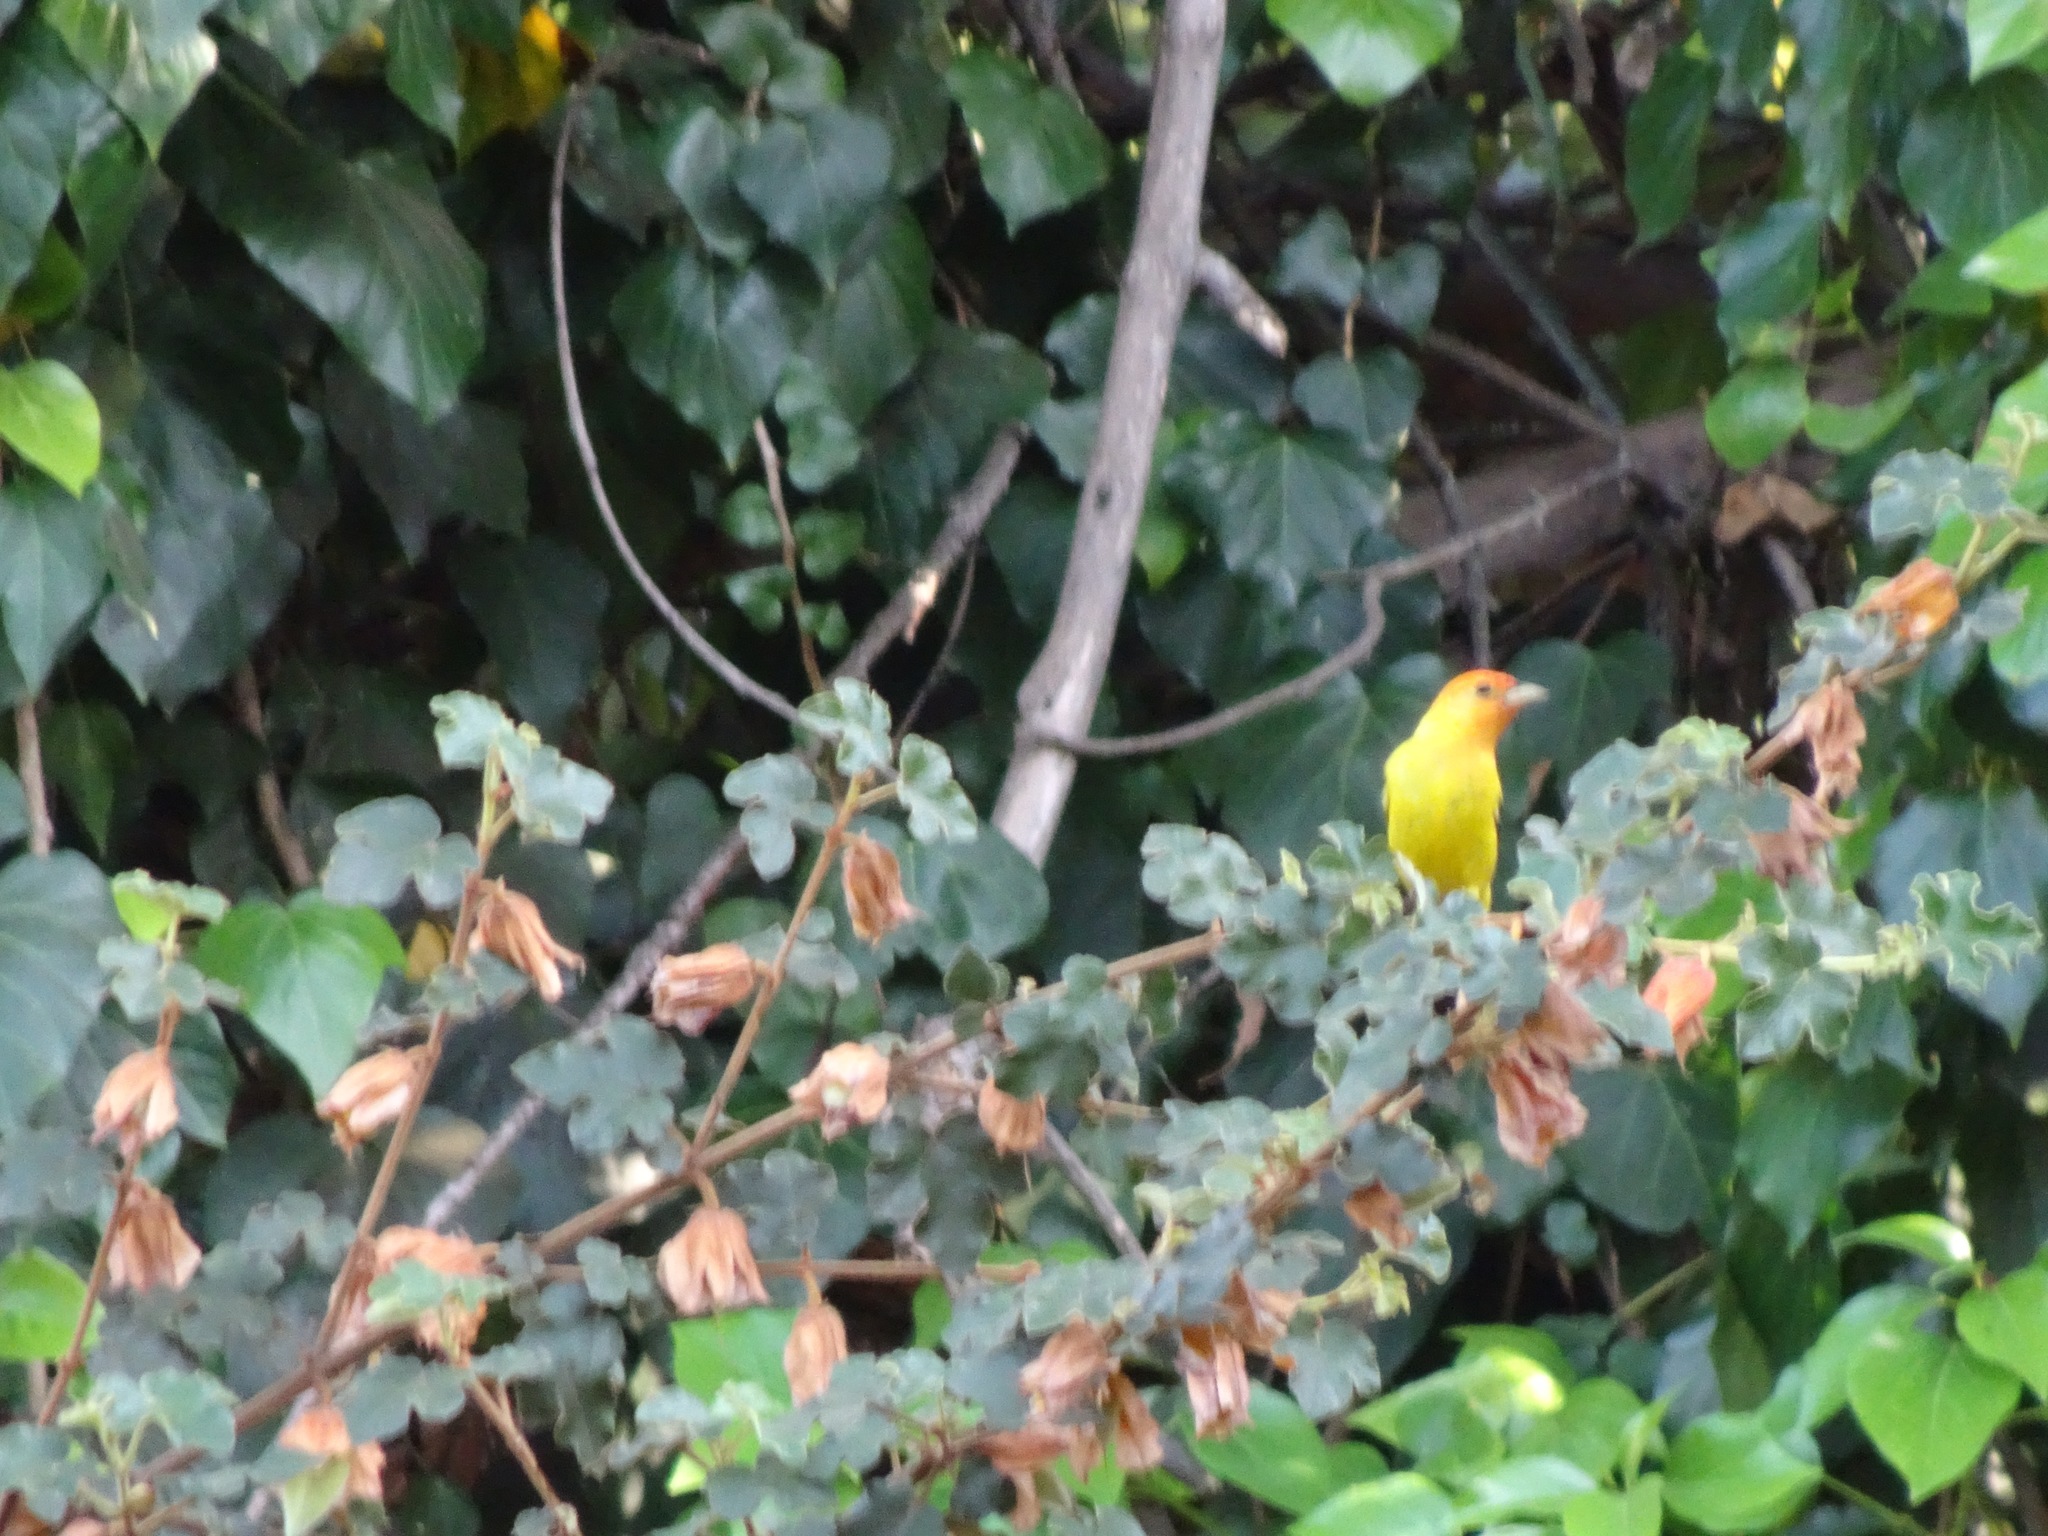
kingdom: Animalia
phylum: Chordata
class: Aves
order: Passeriformes
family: Cardinalidae
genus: Piranga
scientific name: Piranga ludoviciana
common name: Western tanager
